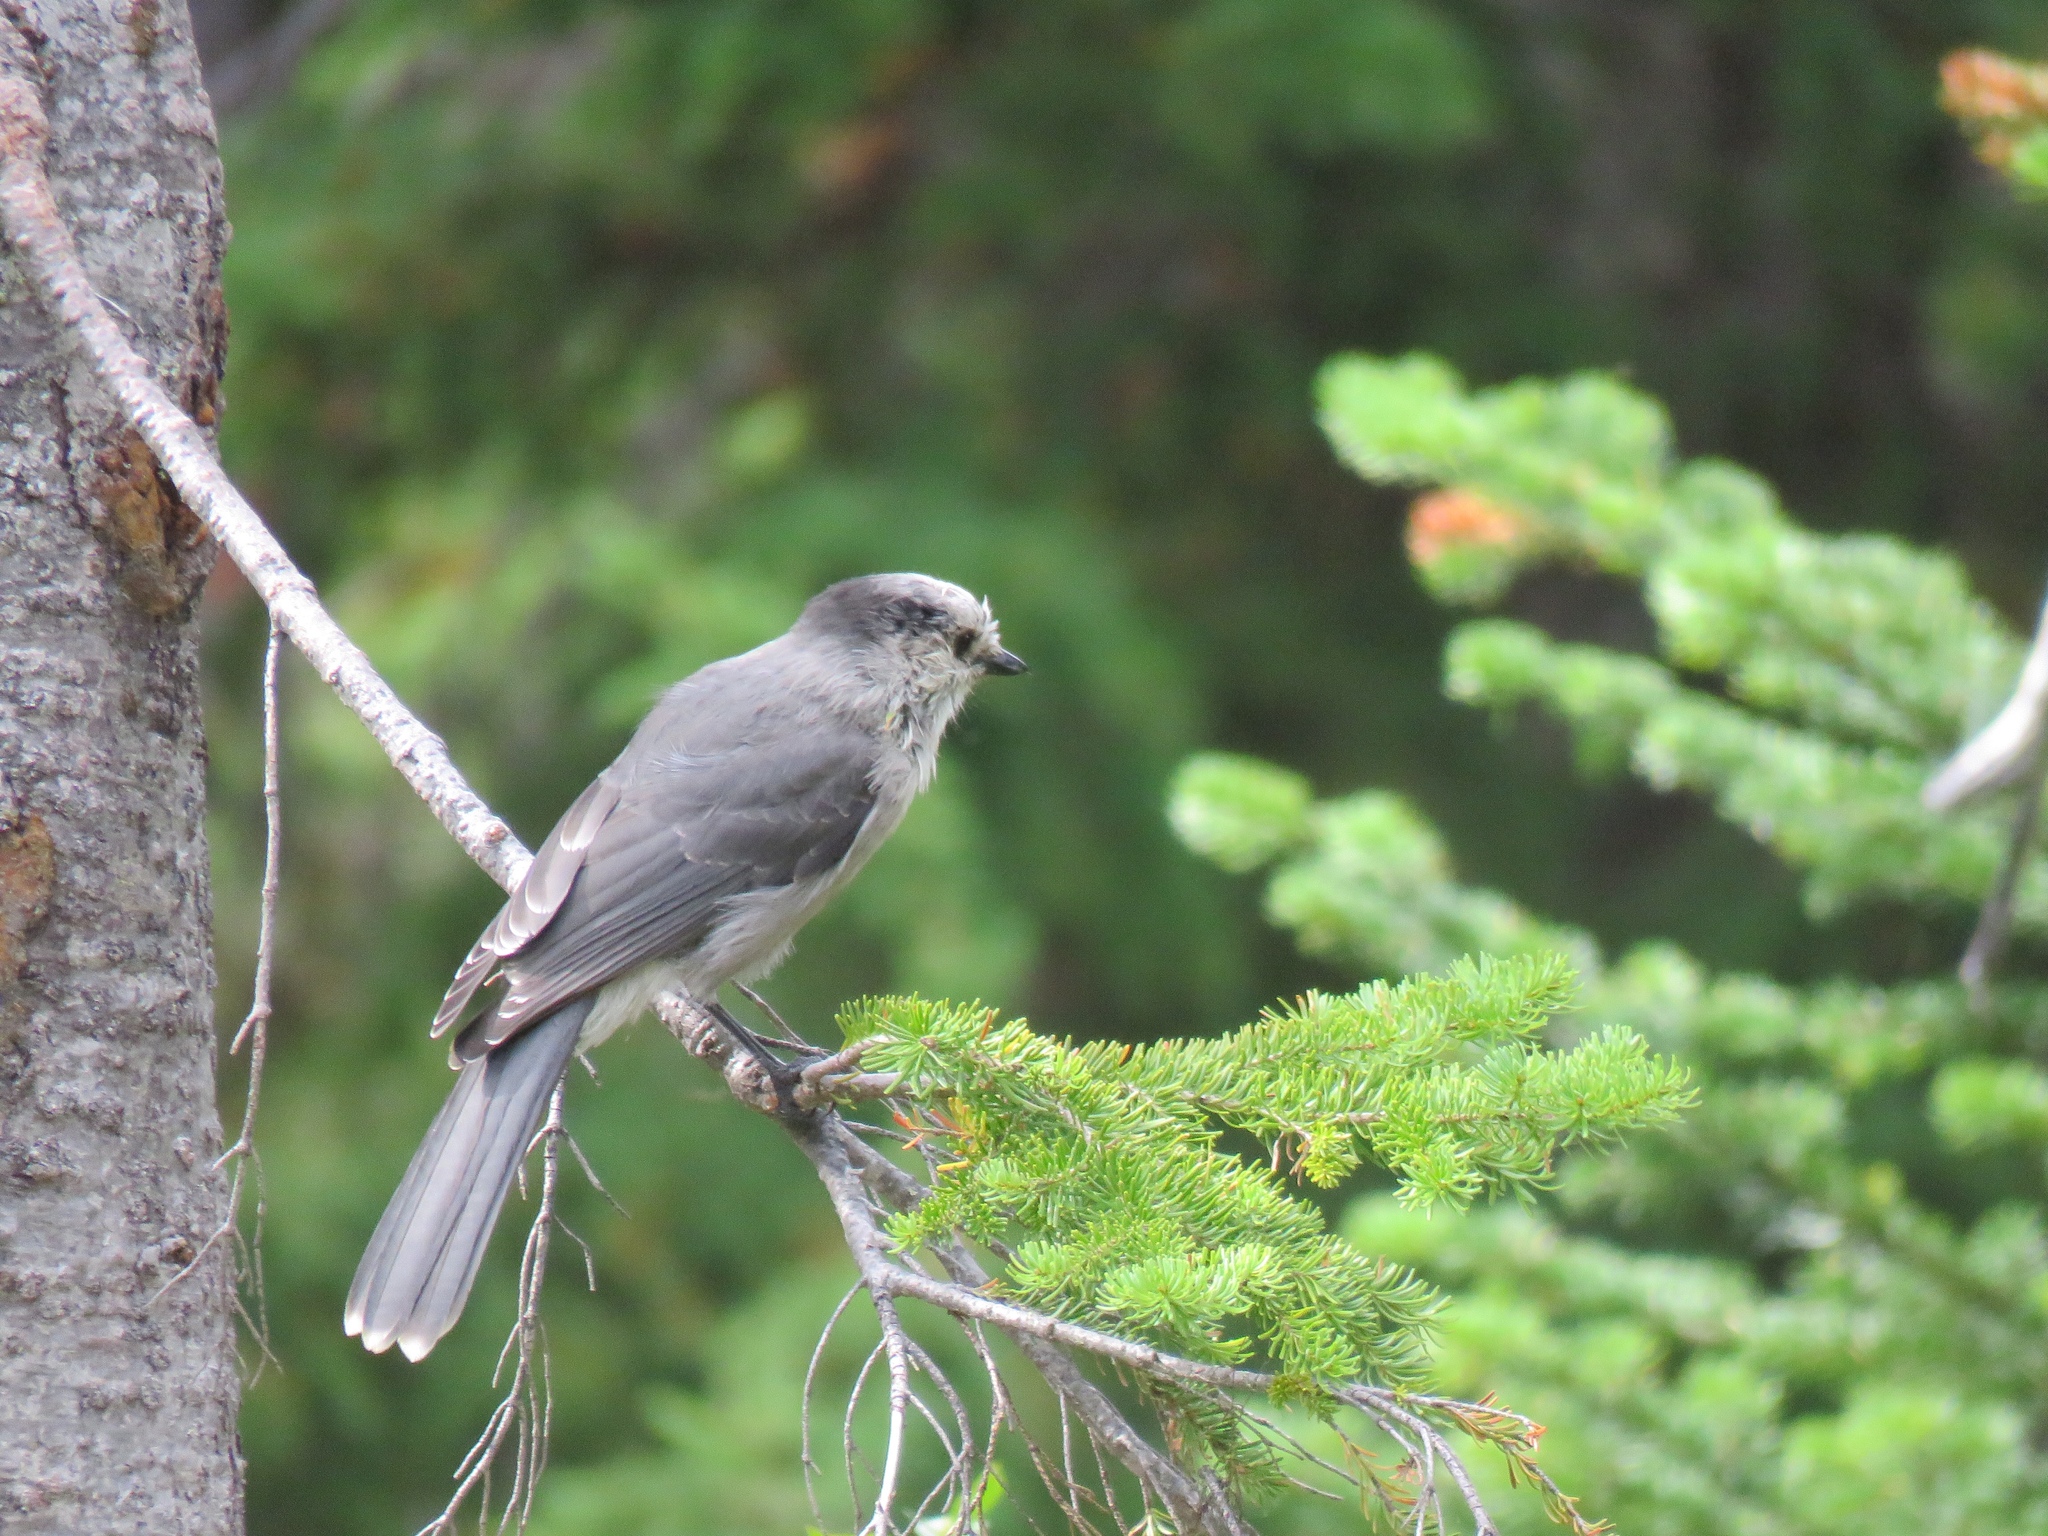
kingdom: Animalia
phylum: Chordata
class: Aves
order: Passeriformes
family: Corvidae
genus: Perisoreus
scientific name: Perisoreus canadensis
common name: Gray jay
